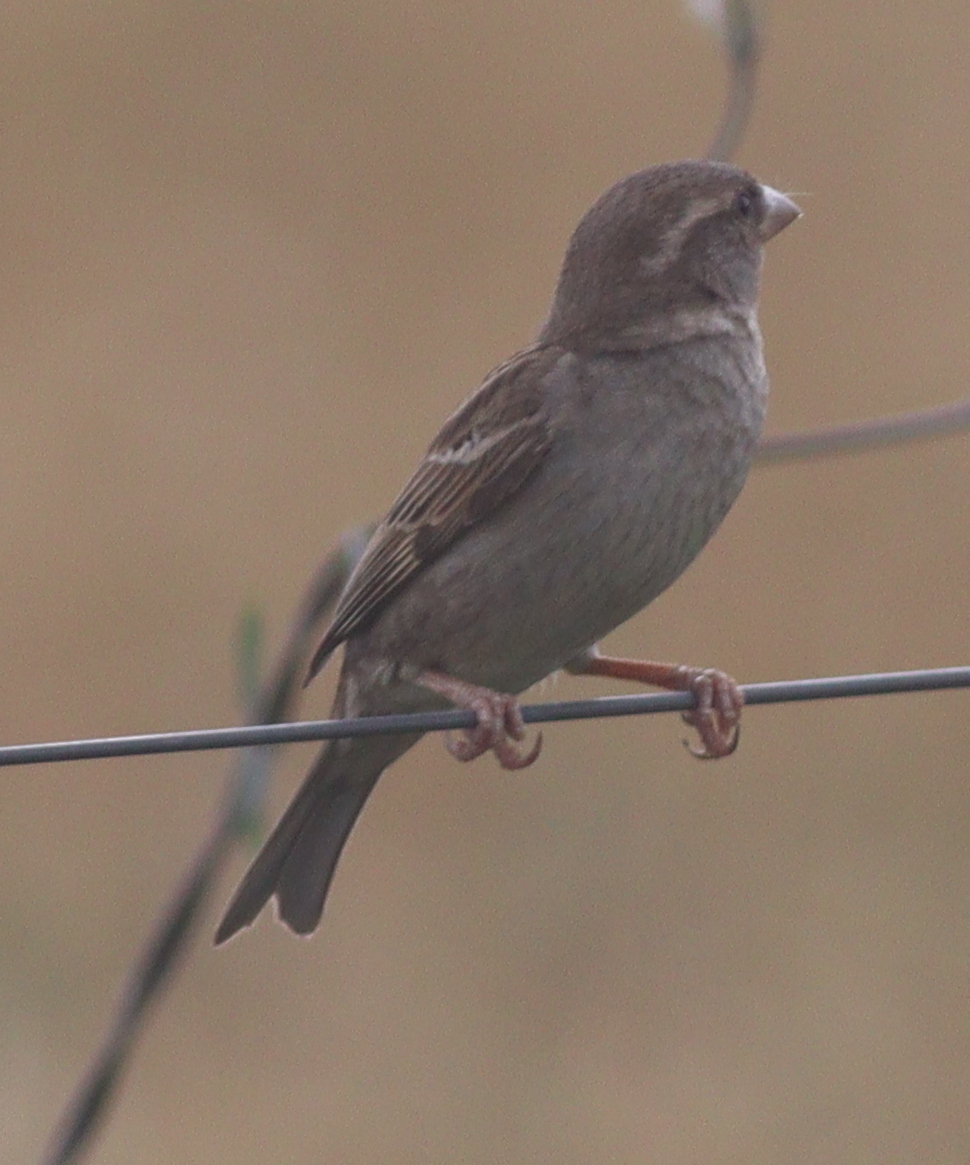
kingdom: Animalia
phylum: Chordata
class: Aves
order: Passeriformes
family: Passeridae
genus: Passer
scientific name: Passer domesticus
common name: House sparrow
